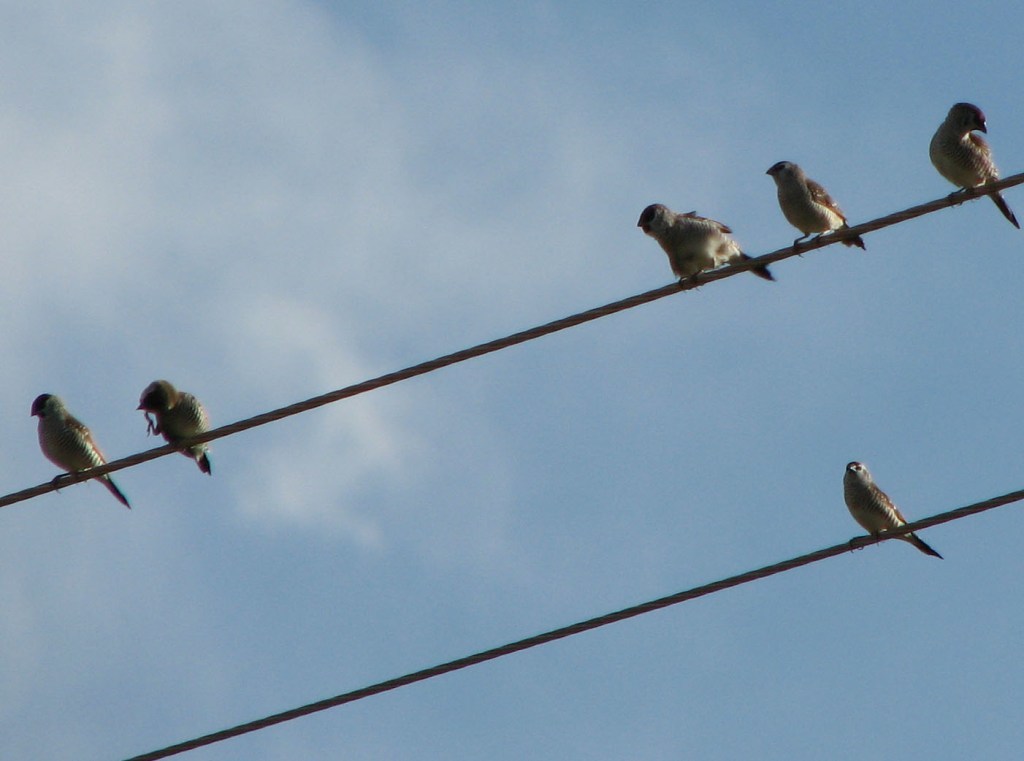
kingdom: Animalia
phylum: Chordata
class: Aves
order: Passeriformes
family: Estrildidae
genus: Neochmia
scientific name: Neochmia modesta
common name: Plum-headed finch
